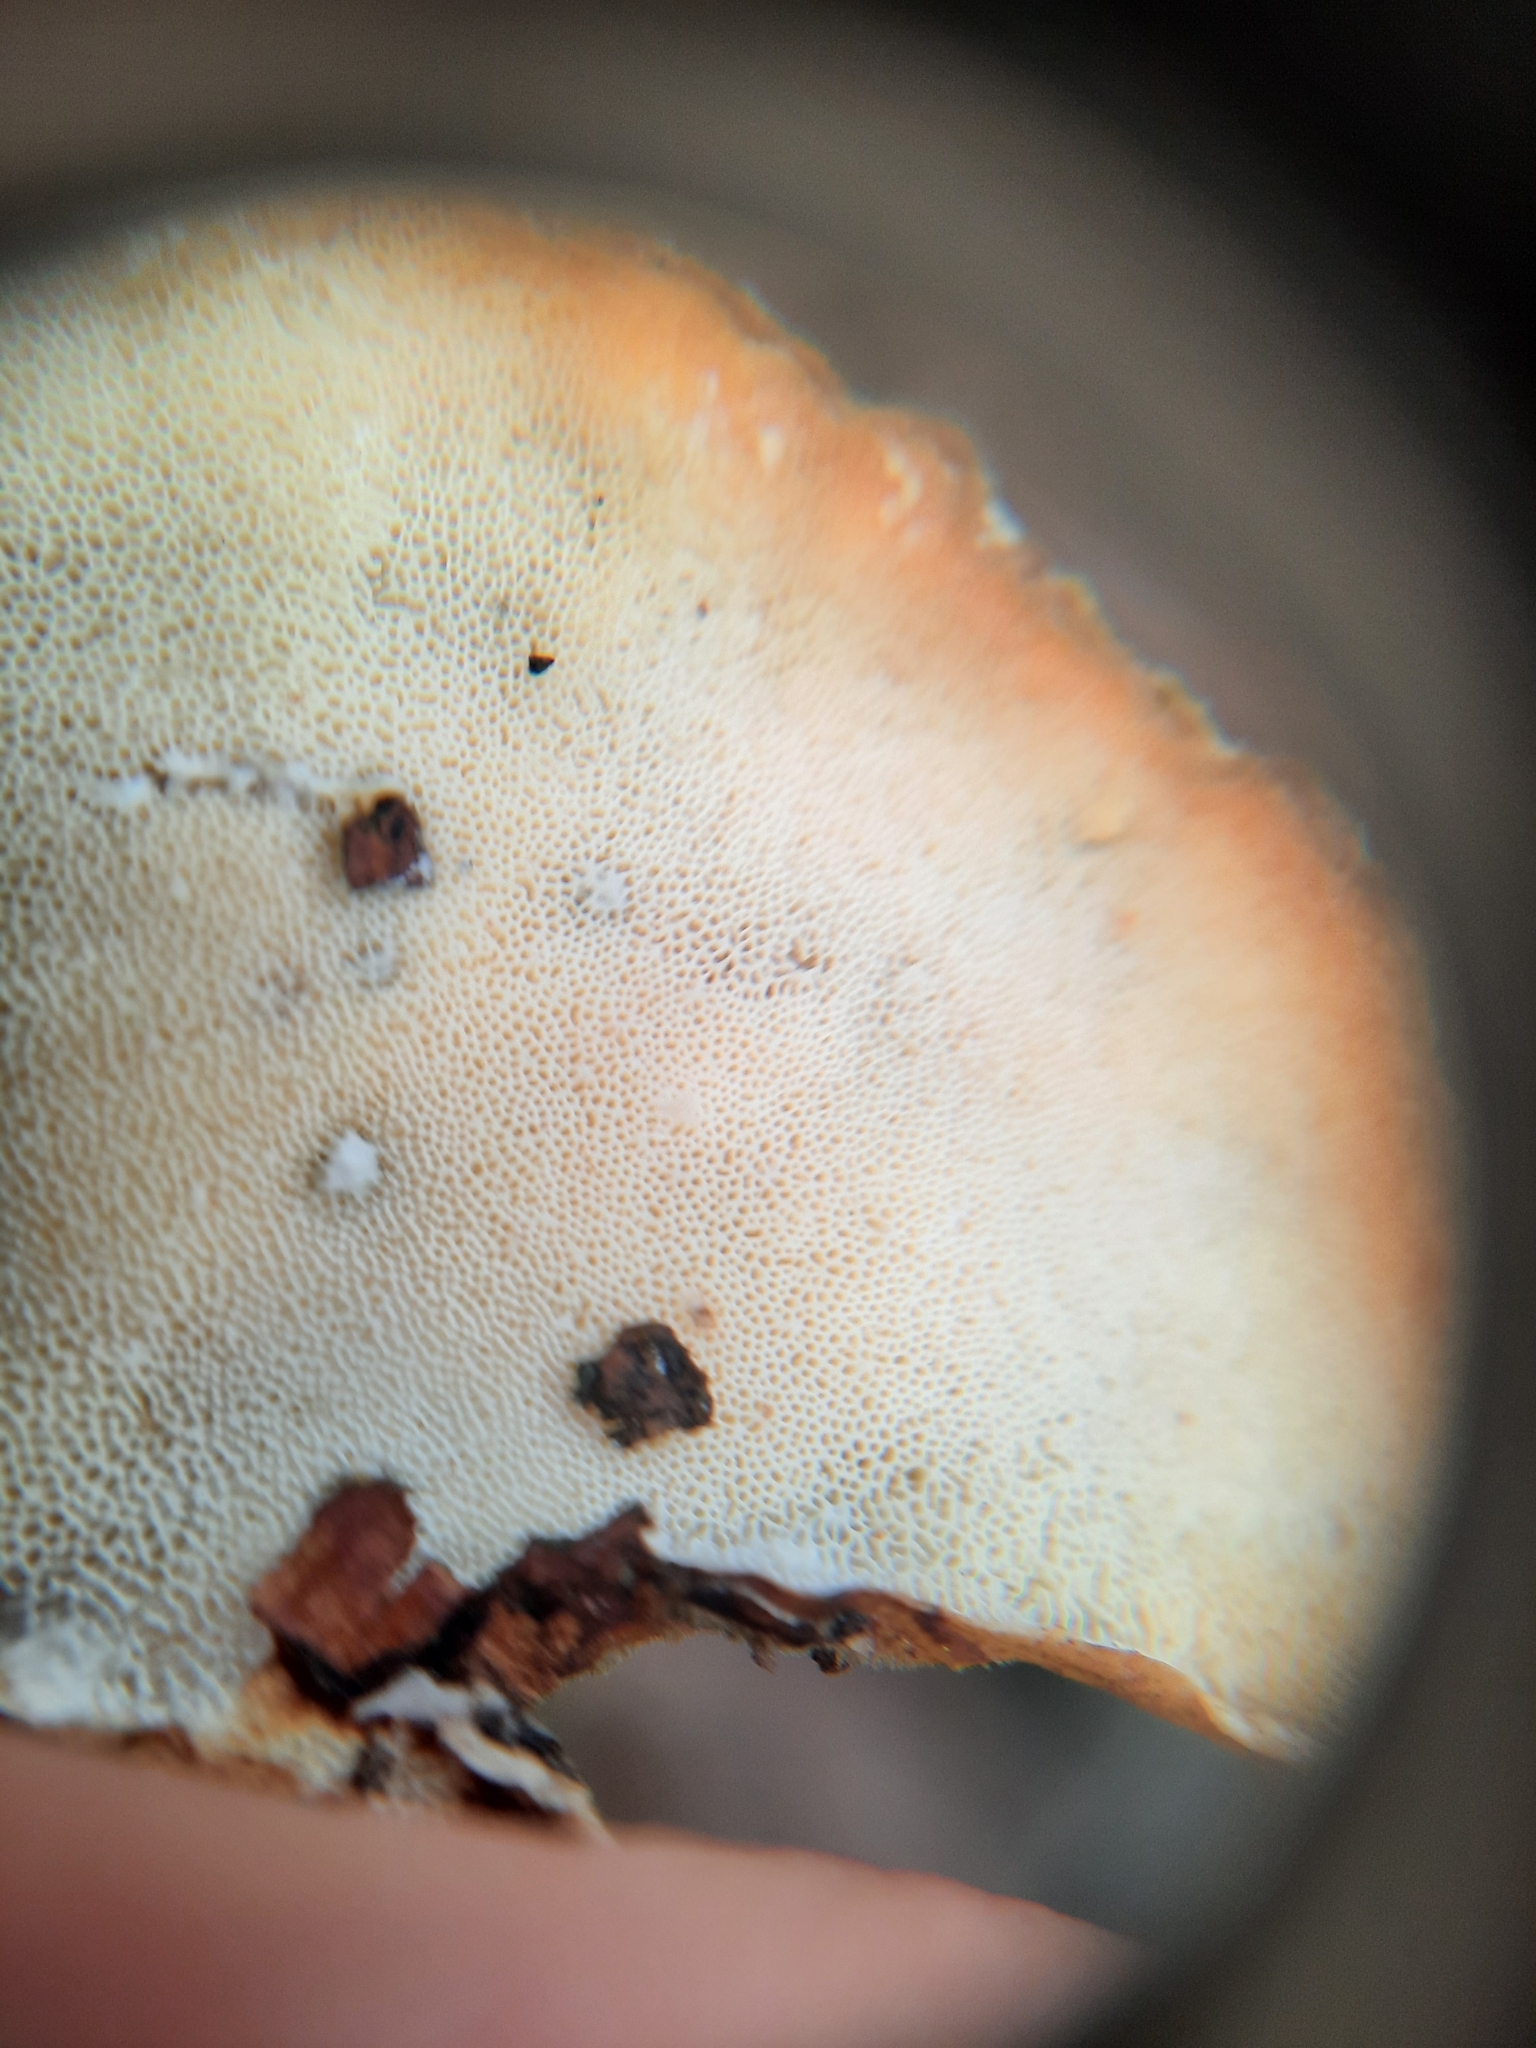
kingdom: Fungi
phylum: Basidiomycota
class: Agaricomycetes
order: Polyporales
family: Polyporaceae
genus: Trametes
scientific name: Trametes versicolor
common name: Turkeytail
